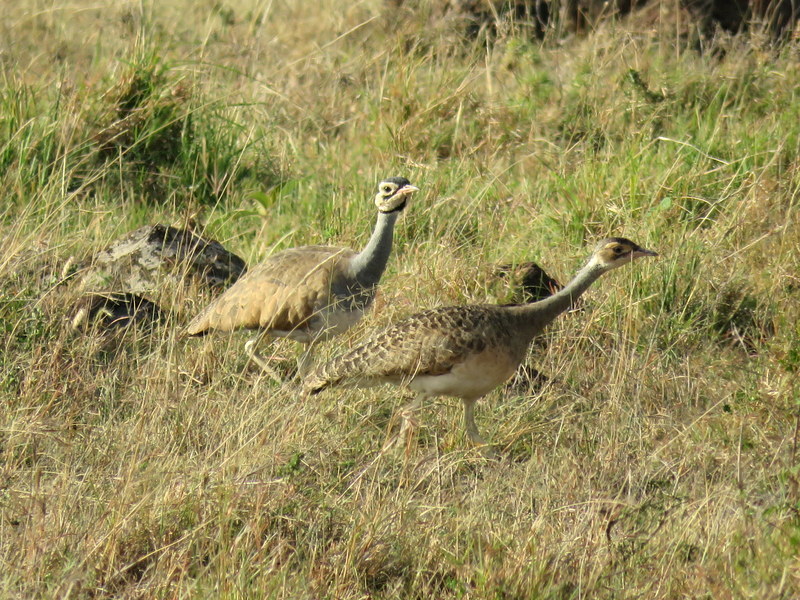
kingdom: Animalia
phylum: Chordata
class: Aves
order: Otidiformes
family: Otididae
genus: Eupodotis
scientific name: Eupodotis senegalensis
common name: White-bellied bustard
